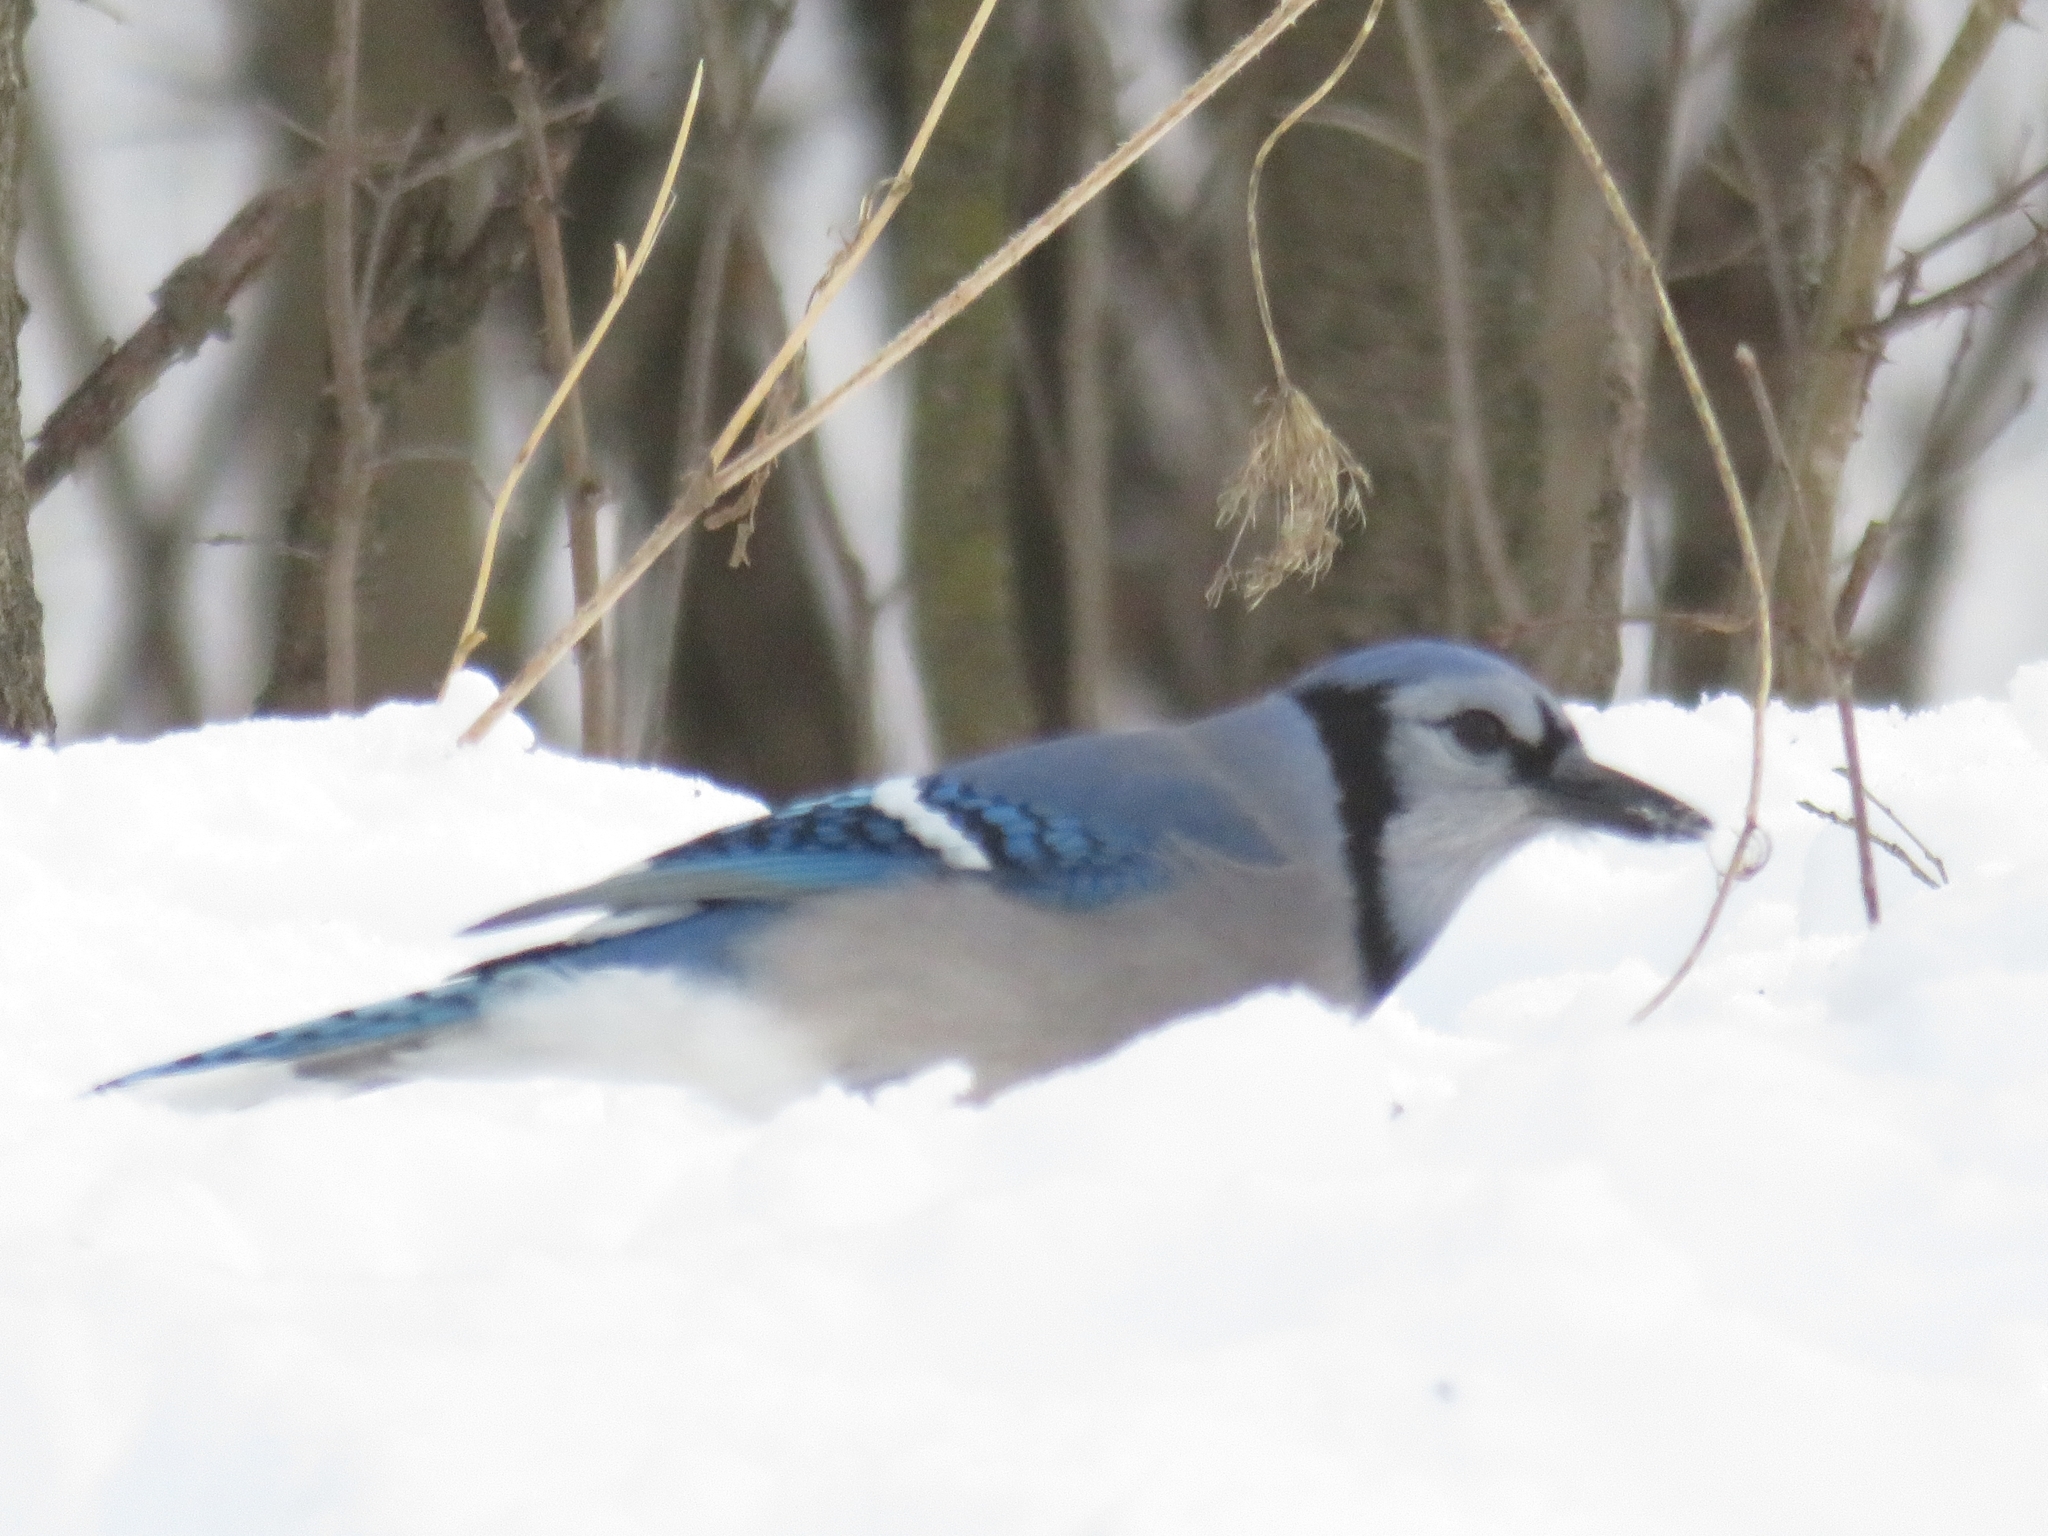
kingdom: Animalia
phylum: Chordata
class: Aves
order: Passeriformes
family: Corvidae
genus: Cyanocitta
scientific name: Cyanocitta cristata
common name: Blue jay
